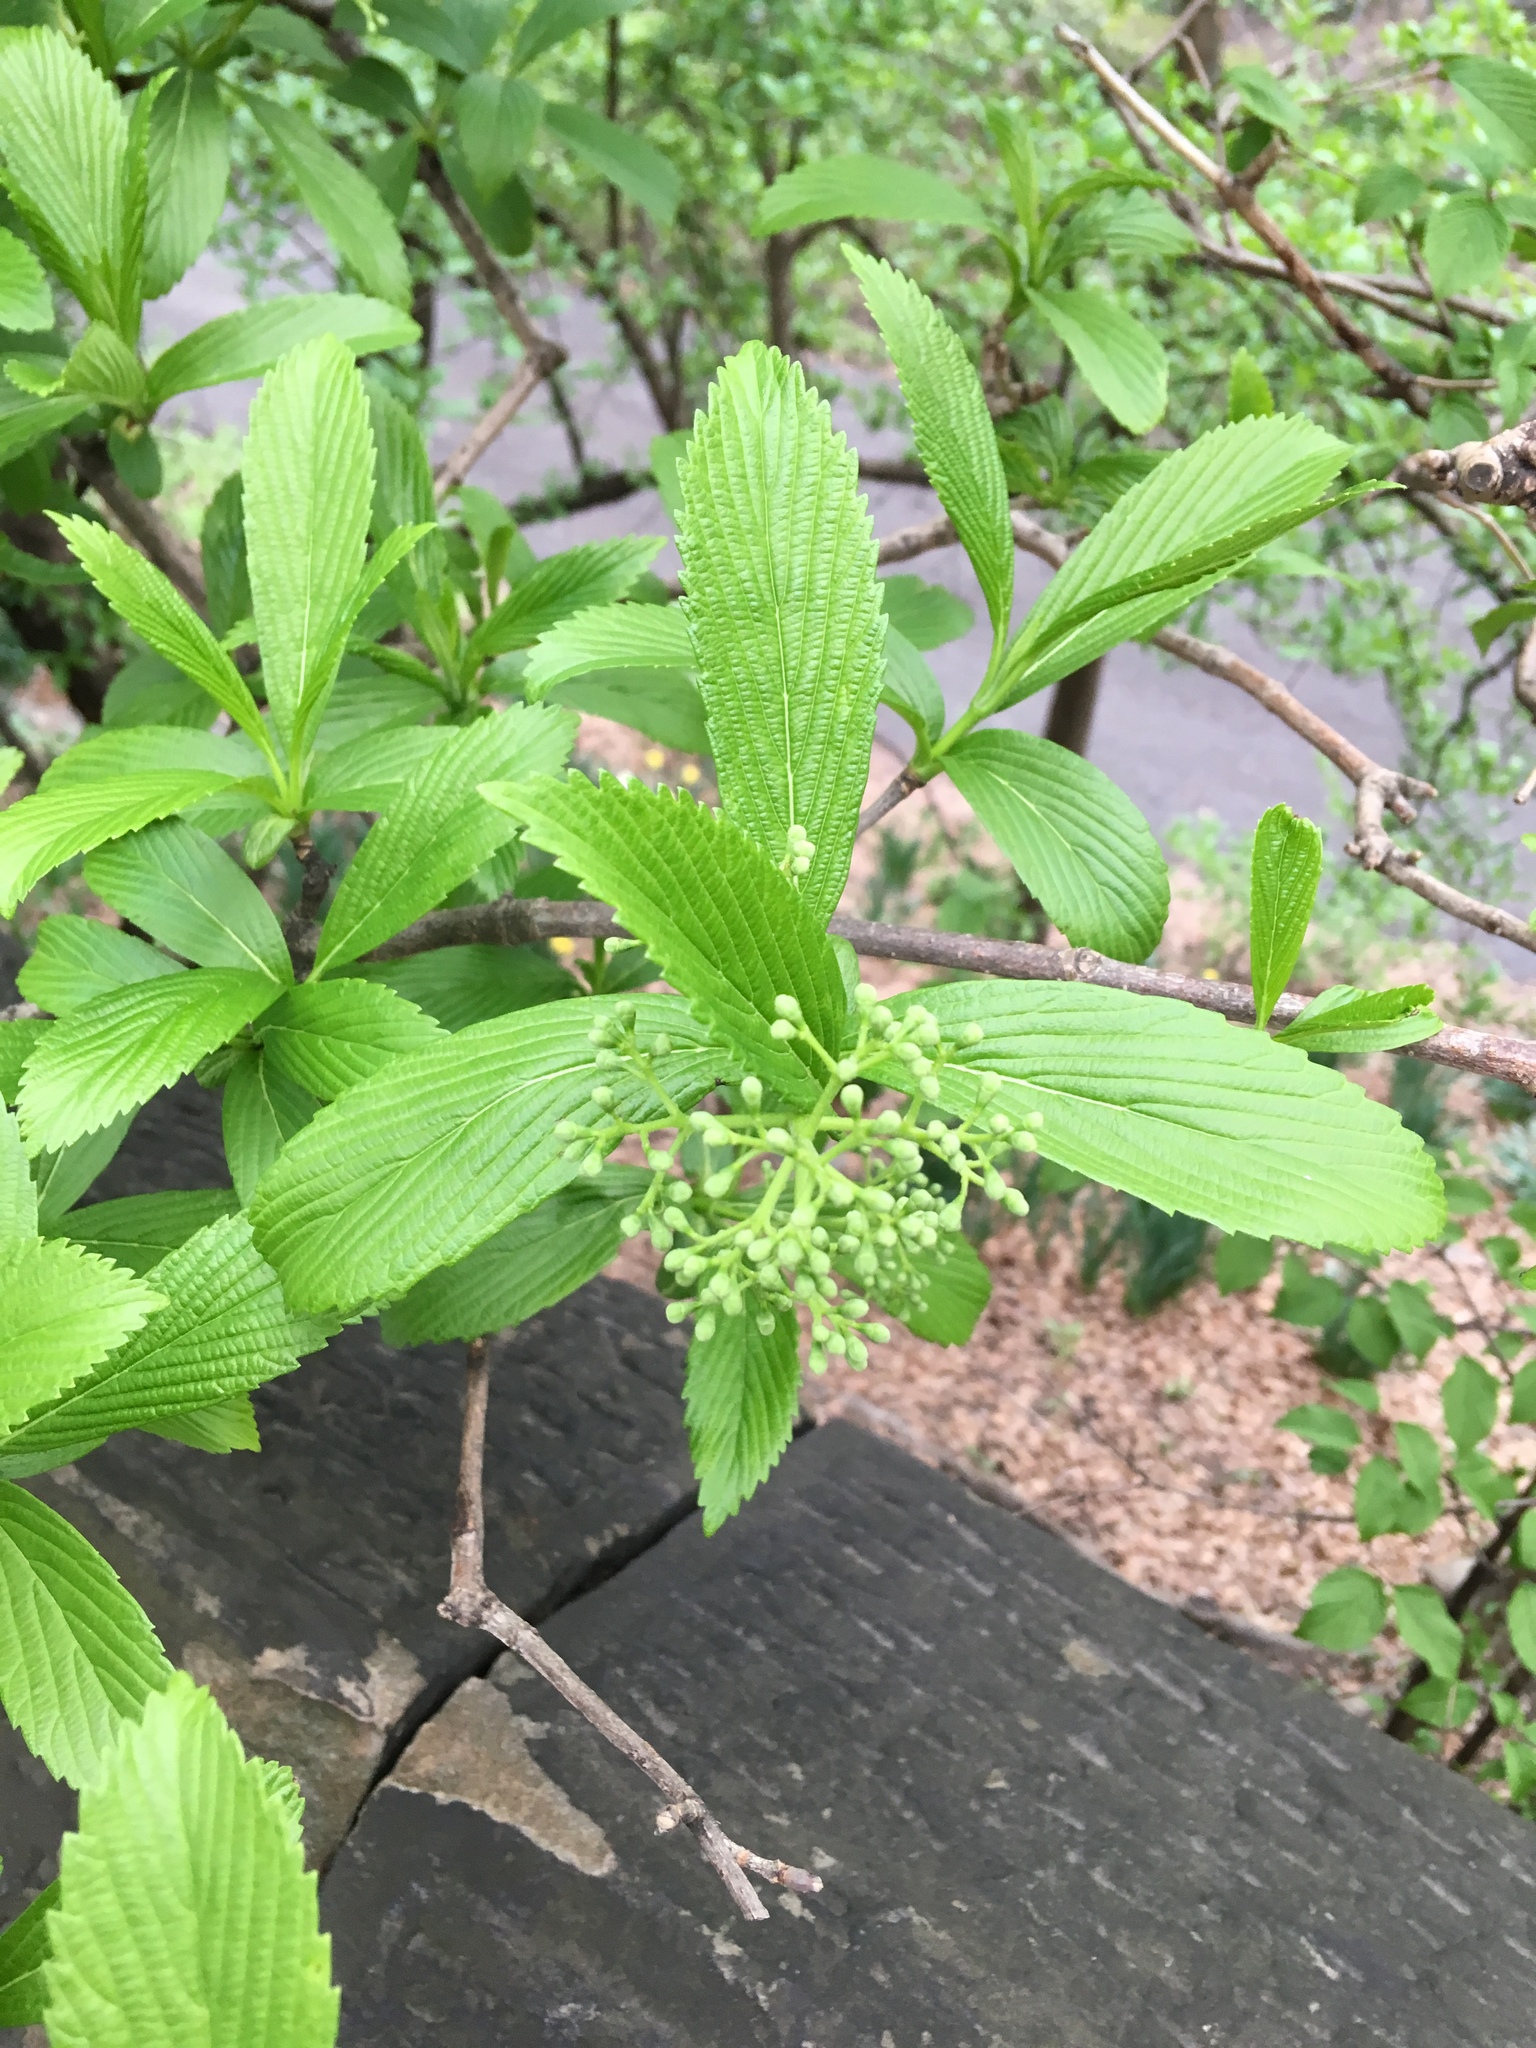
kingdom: Plantae
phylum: Tracheophyta
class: Magnoliopsida
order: Dipsacales
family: Viburnaceae
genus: Viburnum
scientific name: Viburnum sieboldii
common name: Siebold's arrowwood
